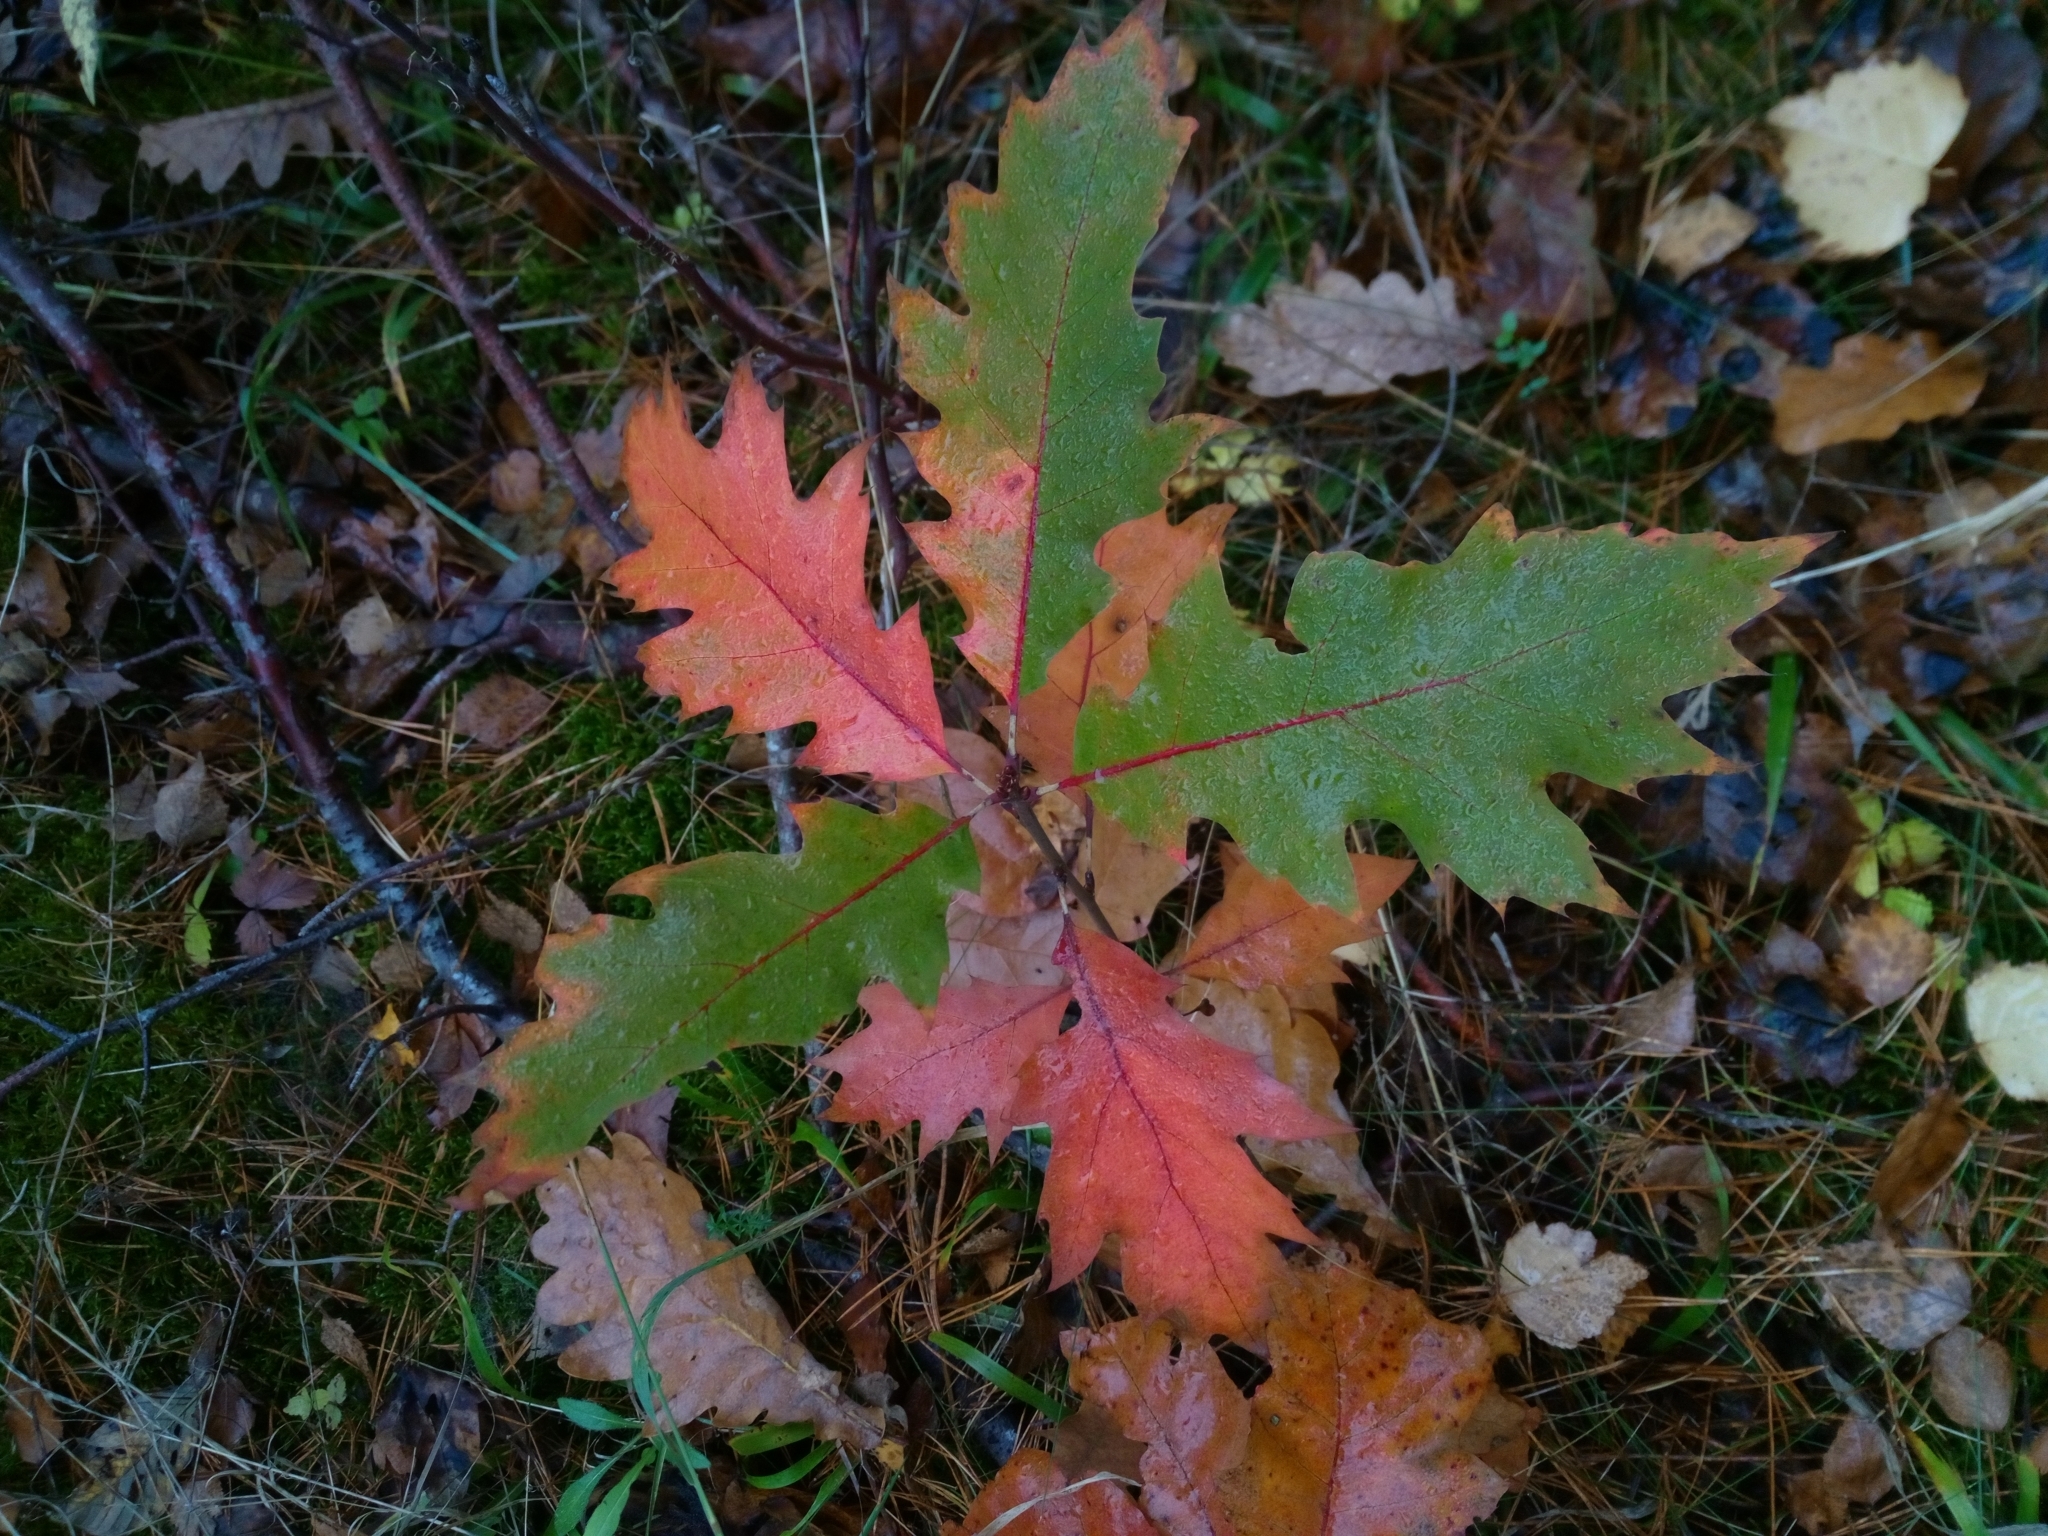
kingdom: Plantae
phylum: Tracheophyta
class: Magnoliopsida
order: Fagales
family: Fagaceae
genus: Quercus
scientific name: Quercus rubra
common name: Red oak
